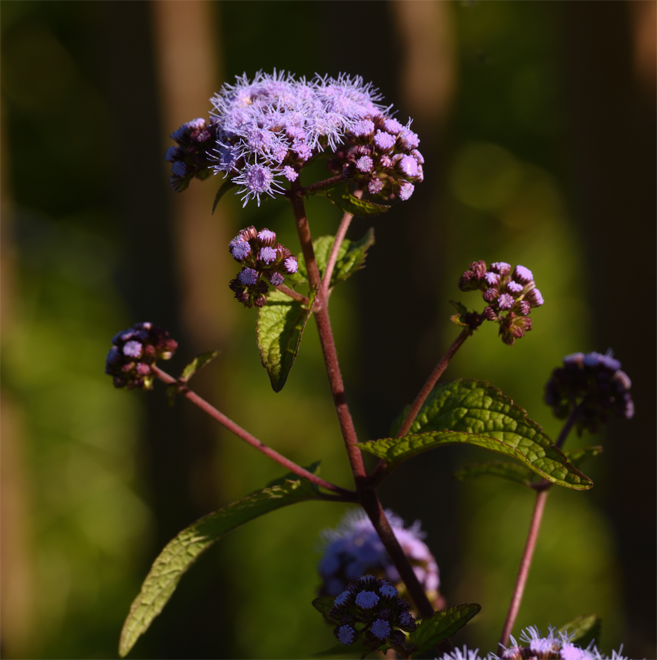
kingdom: Plantae
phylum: Tracheophyta
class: Magnoliopsida
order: Asterales
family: Asteraceae
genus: Conoclinium
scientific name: Conoclinium coelestinum
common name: Blue mistflower
